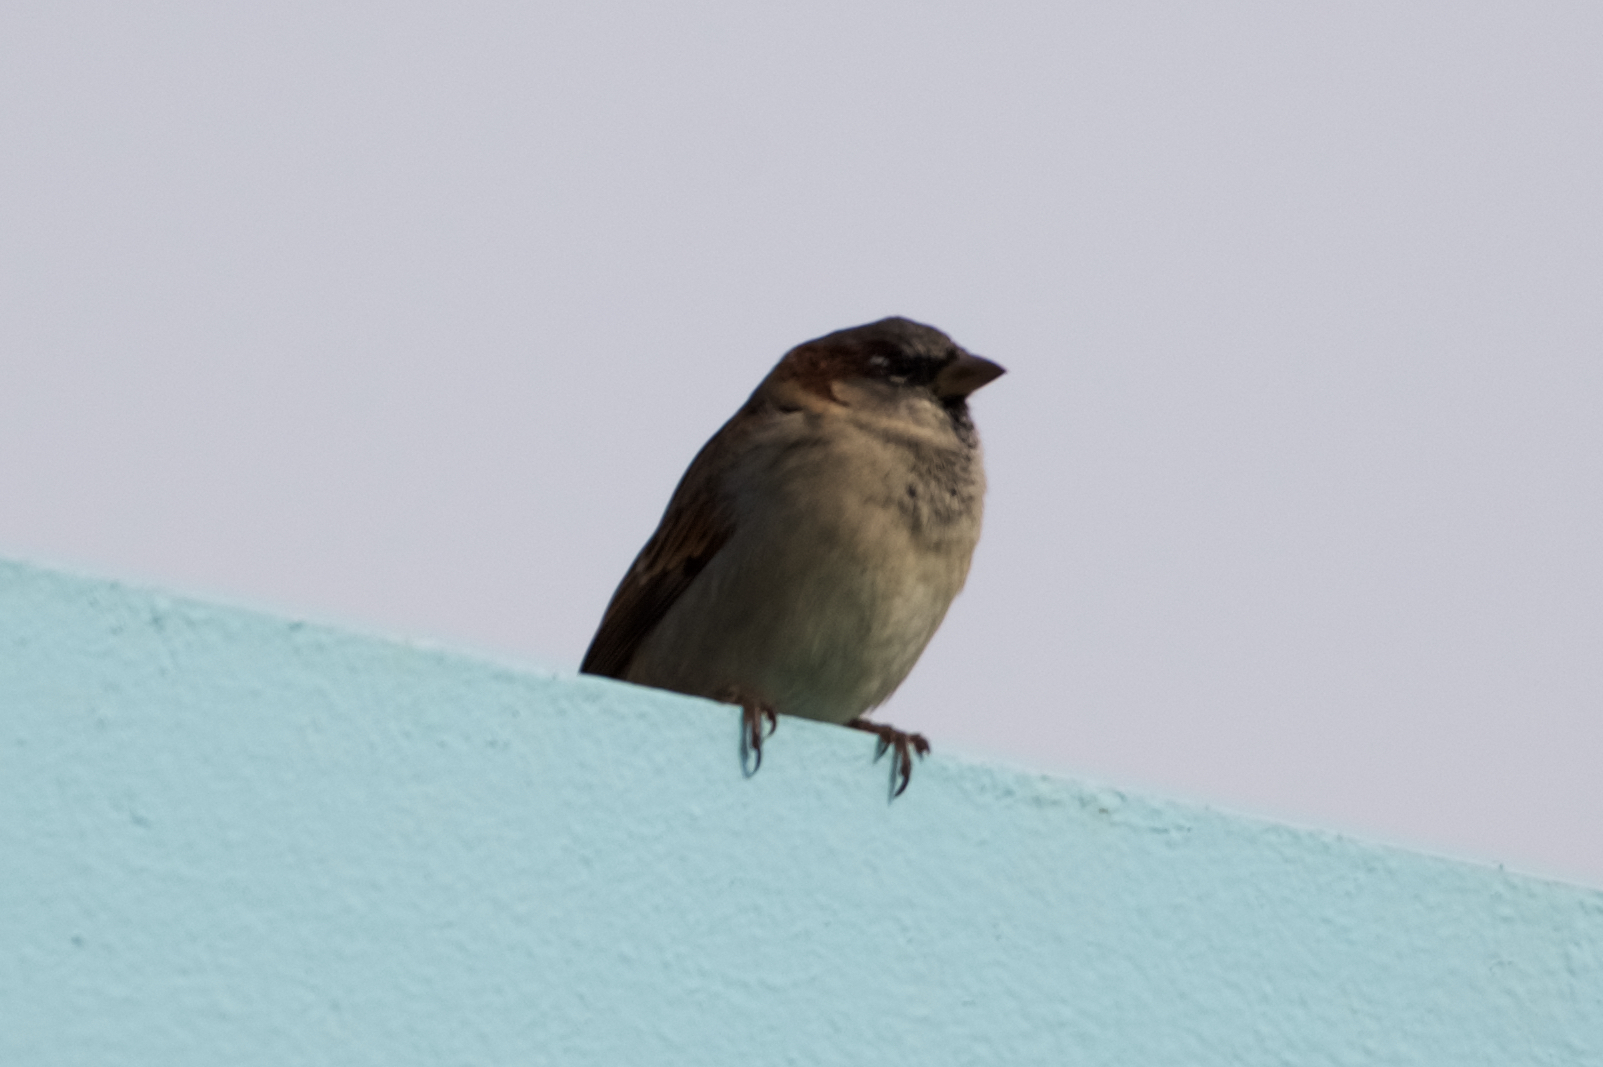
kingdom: Animalia
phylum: Chordata
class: Aves
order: Passeriformes
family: Passeridae
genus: Passer
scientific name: Passer domesticus
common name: House sparrow
